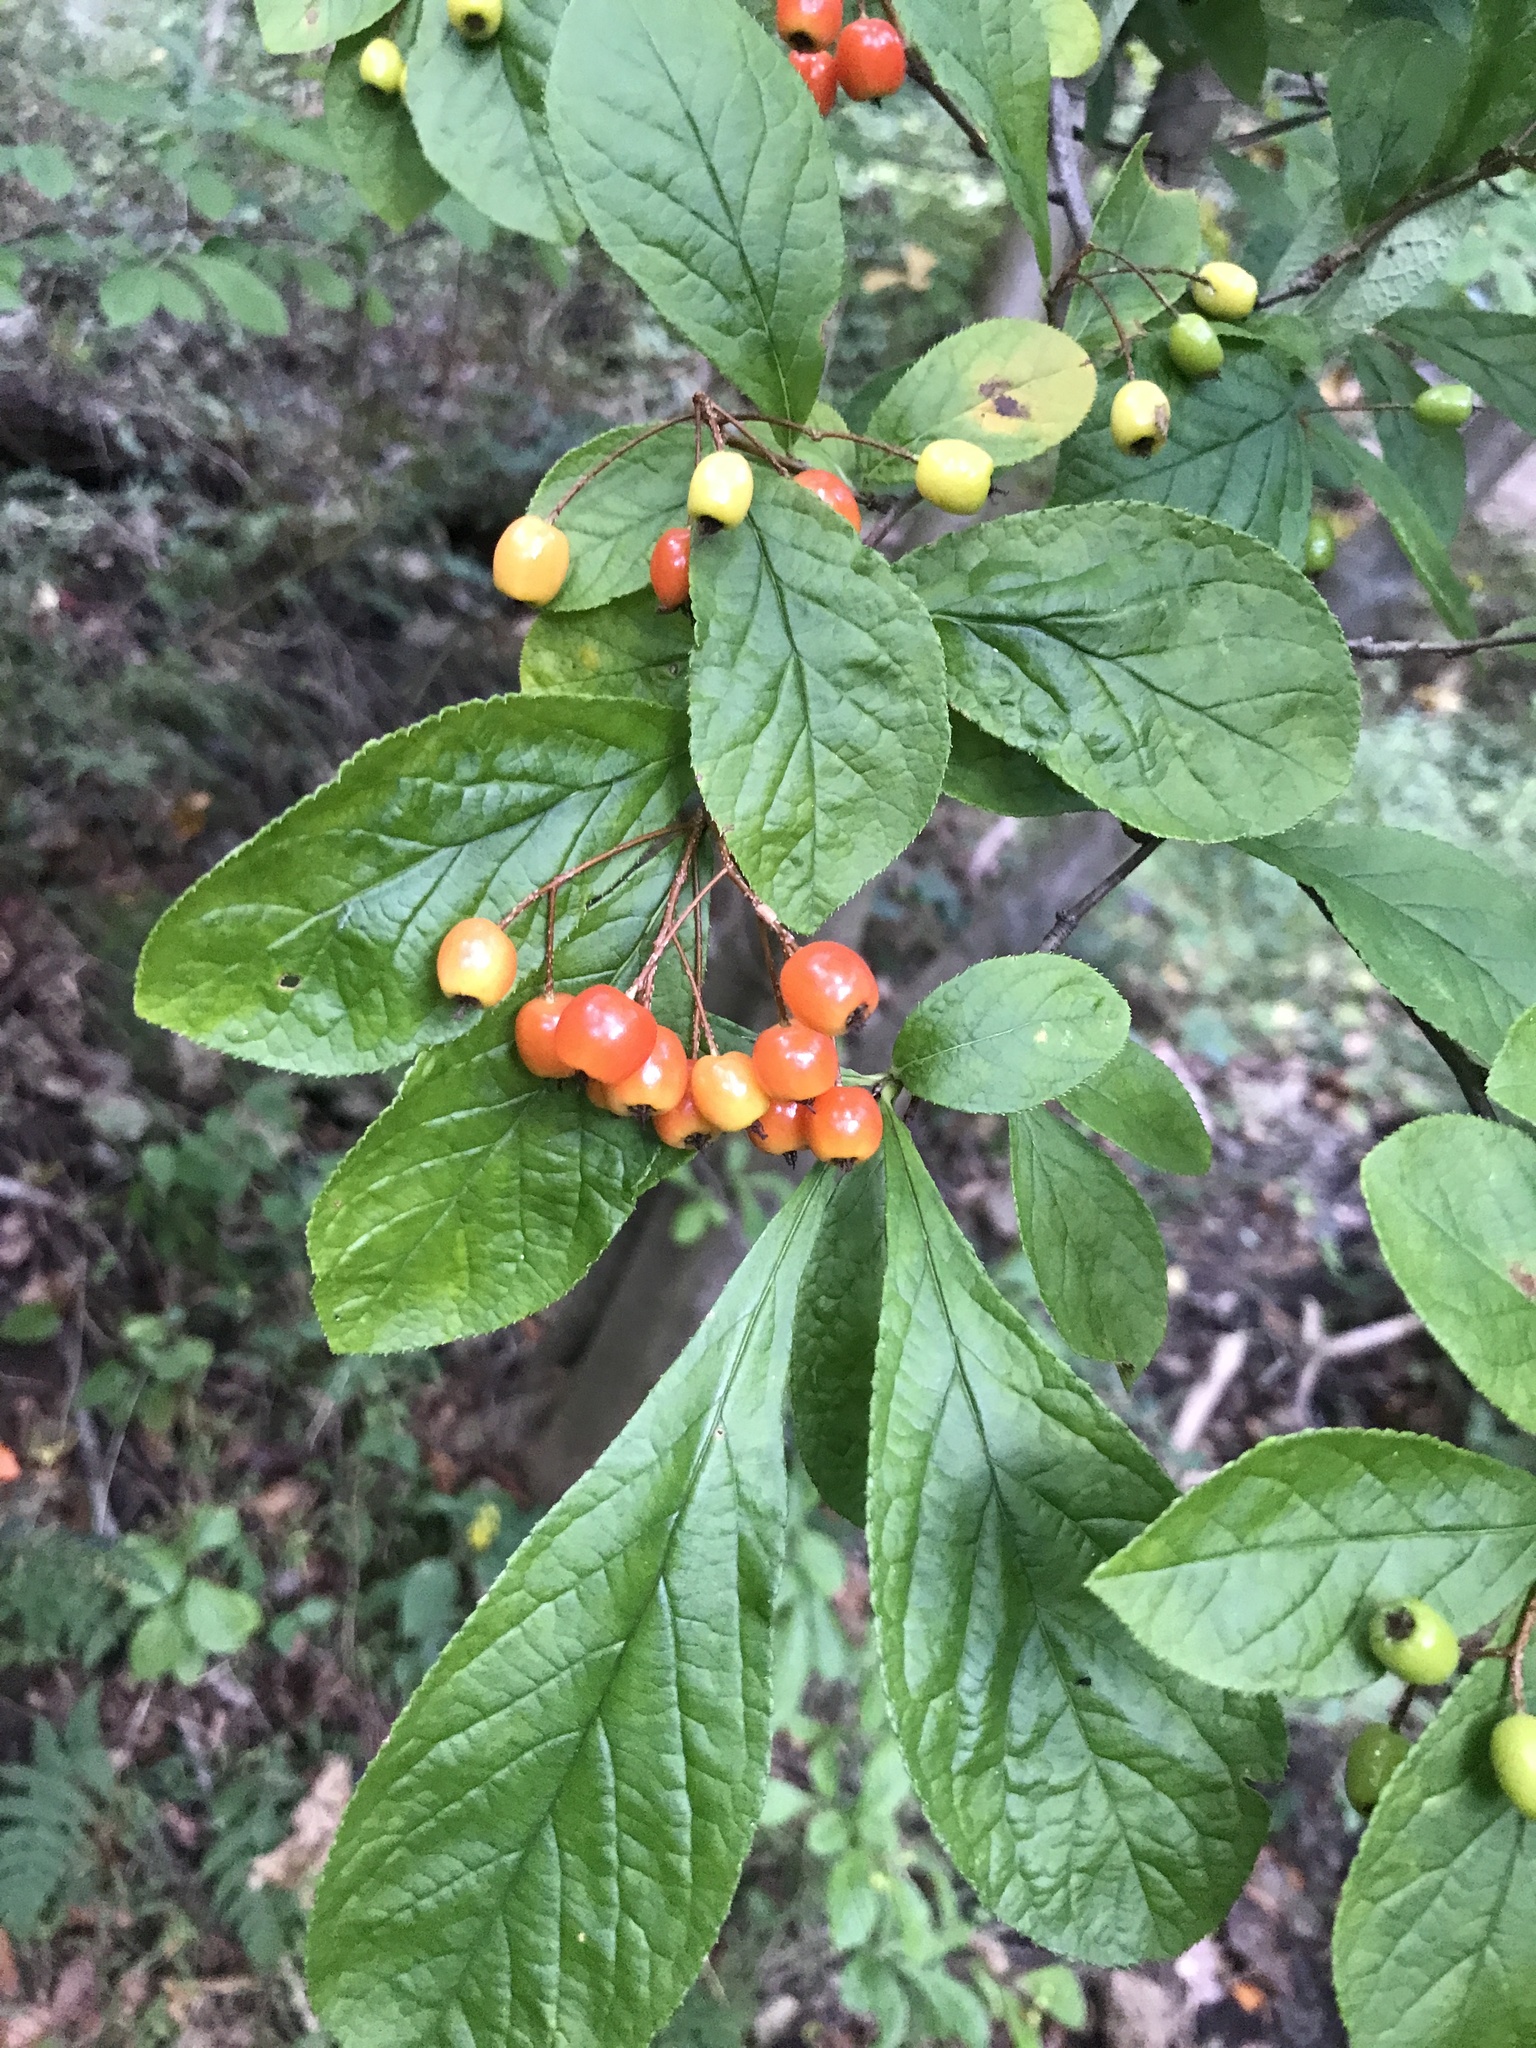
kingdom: Plantae
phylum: Tracheophyta
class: Magnoliopsida
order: Rosales
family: Rosaceae
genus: Pourthiaea
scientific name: Pourthiaea villosa
